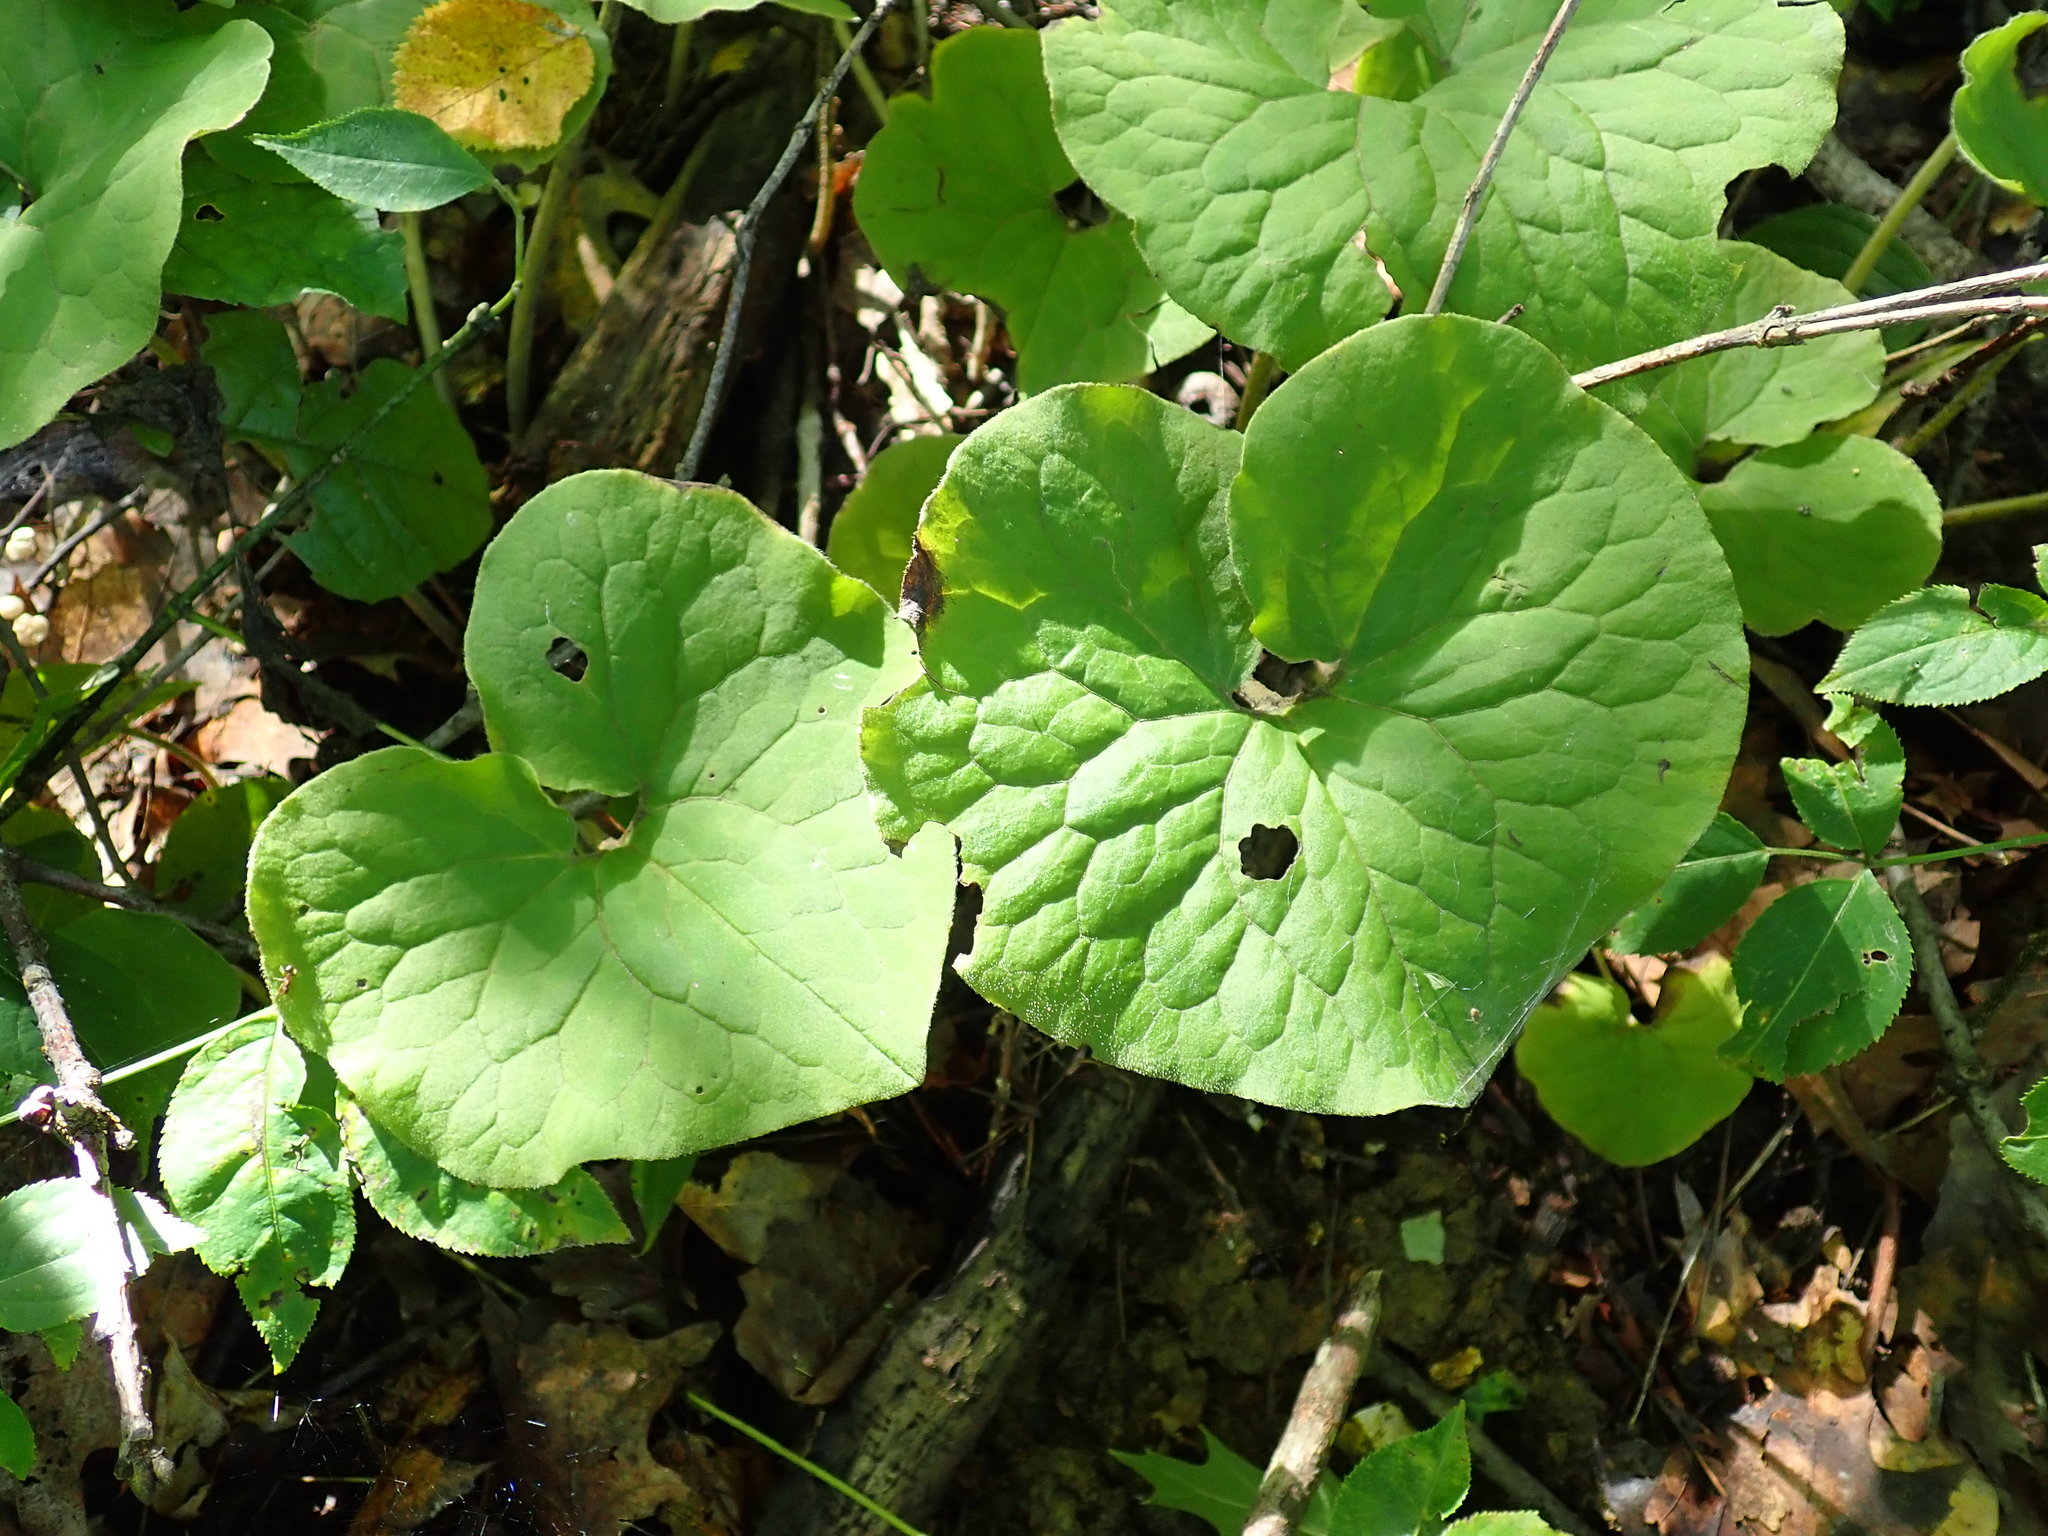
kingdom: Plantae
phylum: Tracheophyta
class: Magnoliopsida
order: Piperales
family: Aristolochiaceae
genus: Asarum
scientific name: Asarum canadense
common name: Wild ginger
